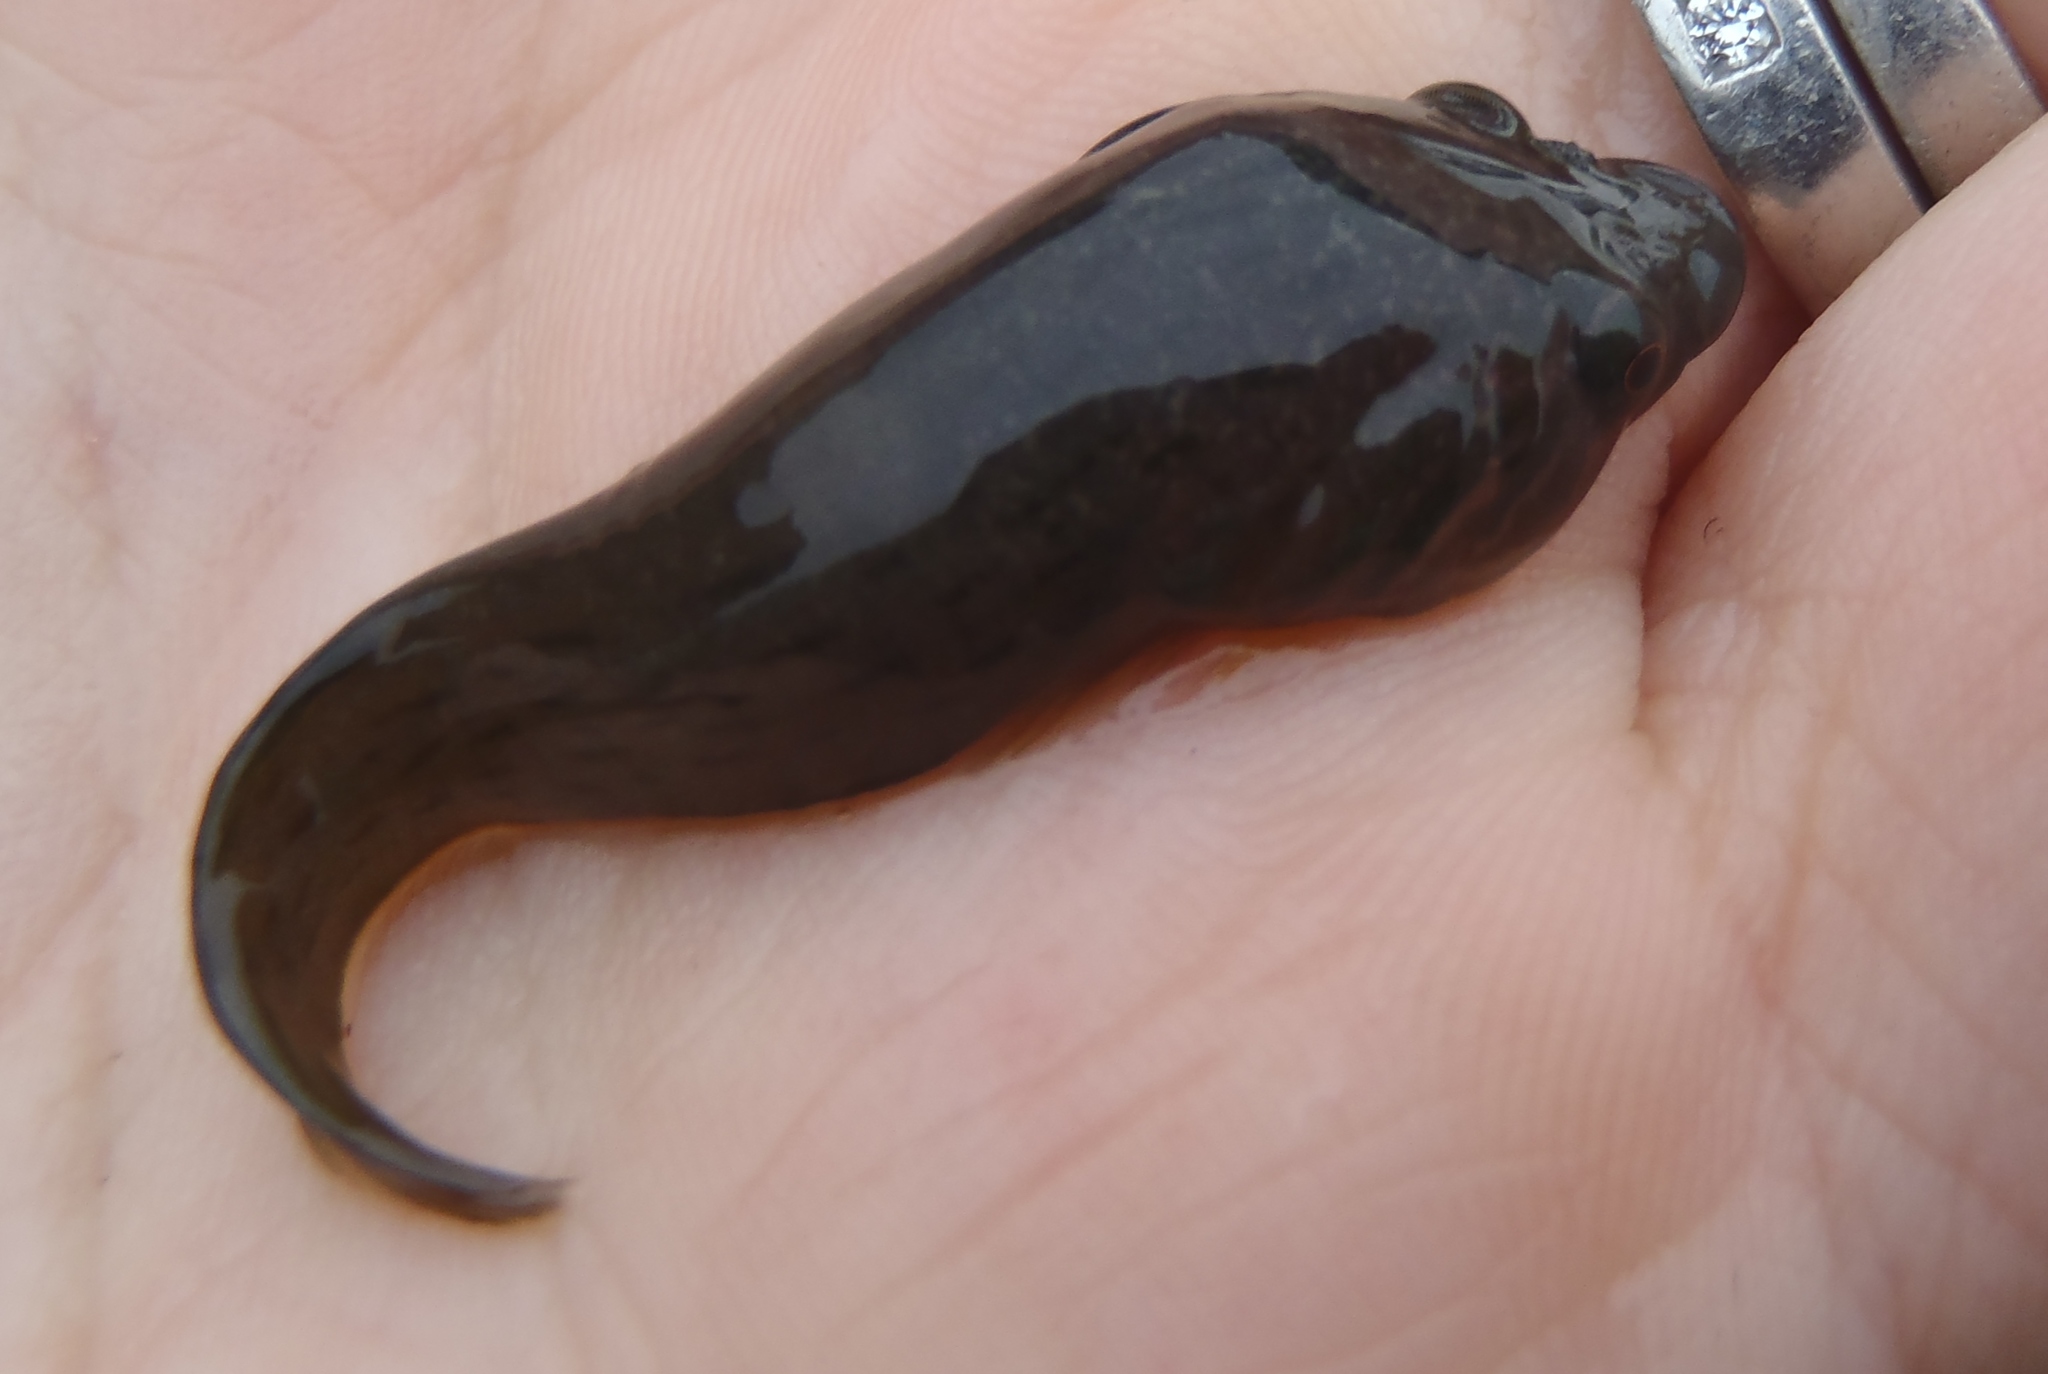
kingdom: Animalia
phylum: Chordata
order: Gobiesociformes
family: Gobiesocidae
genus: Trachelochismus
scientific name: Trachelochismus pinnulatus
